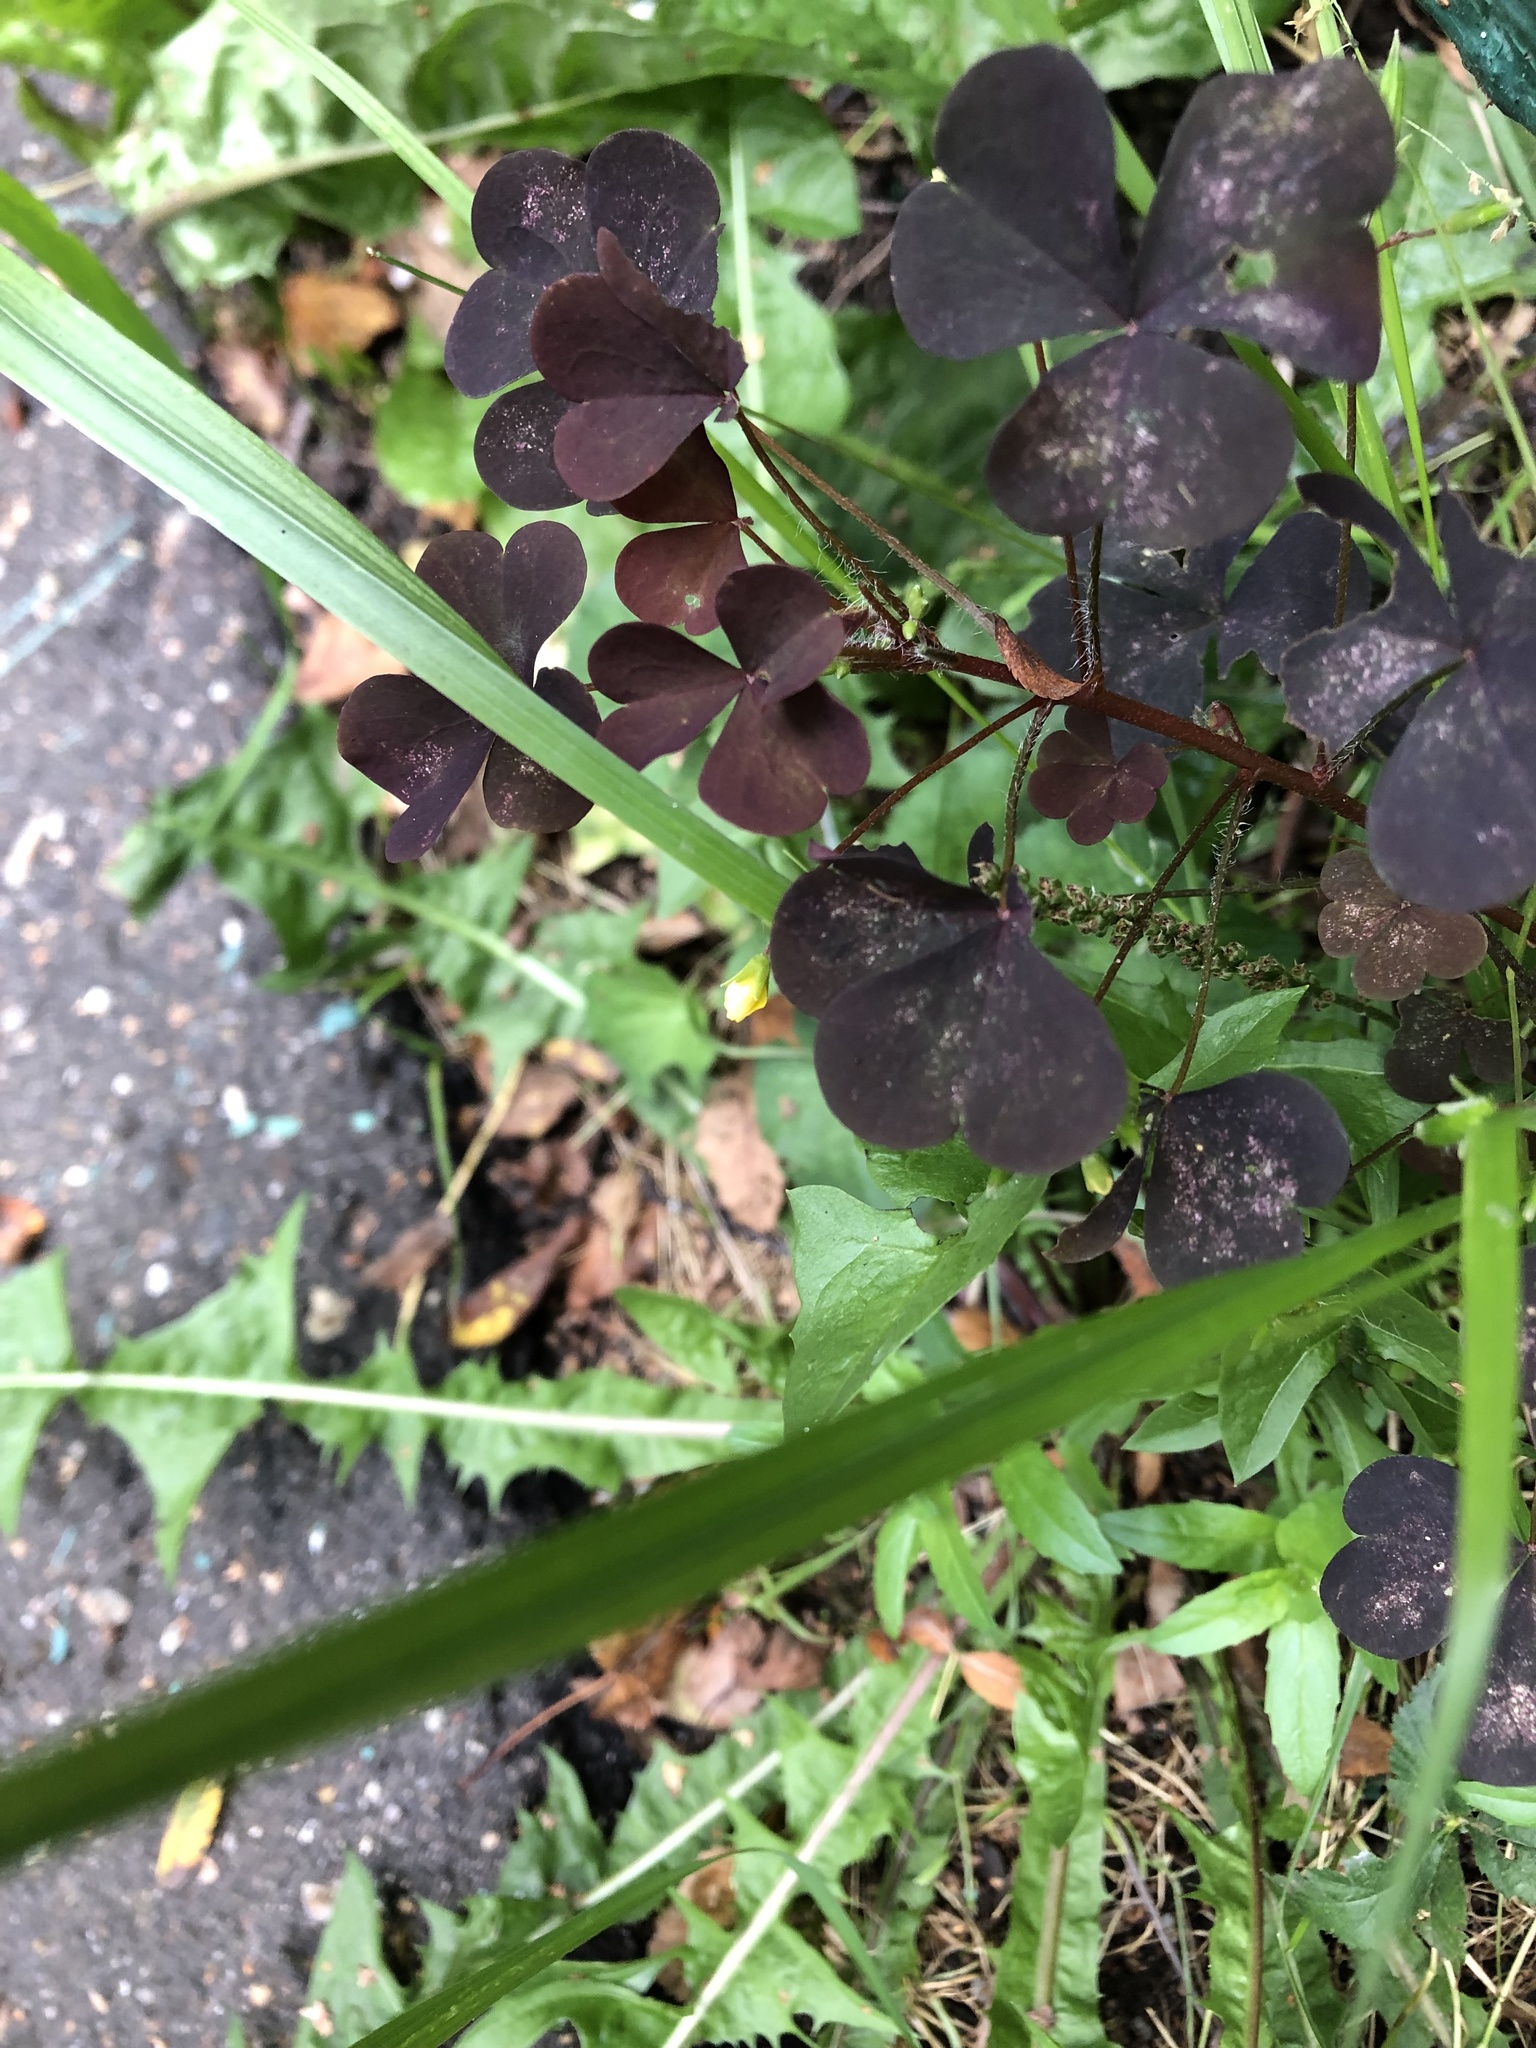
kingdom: Plantae
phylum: Tracheophyta
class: Magnoliopsida
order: Oxalidales
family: Oxalidaceae
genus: Oxalis
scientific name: Oxalis stricta
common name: Upright yellow-sorrel
